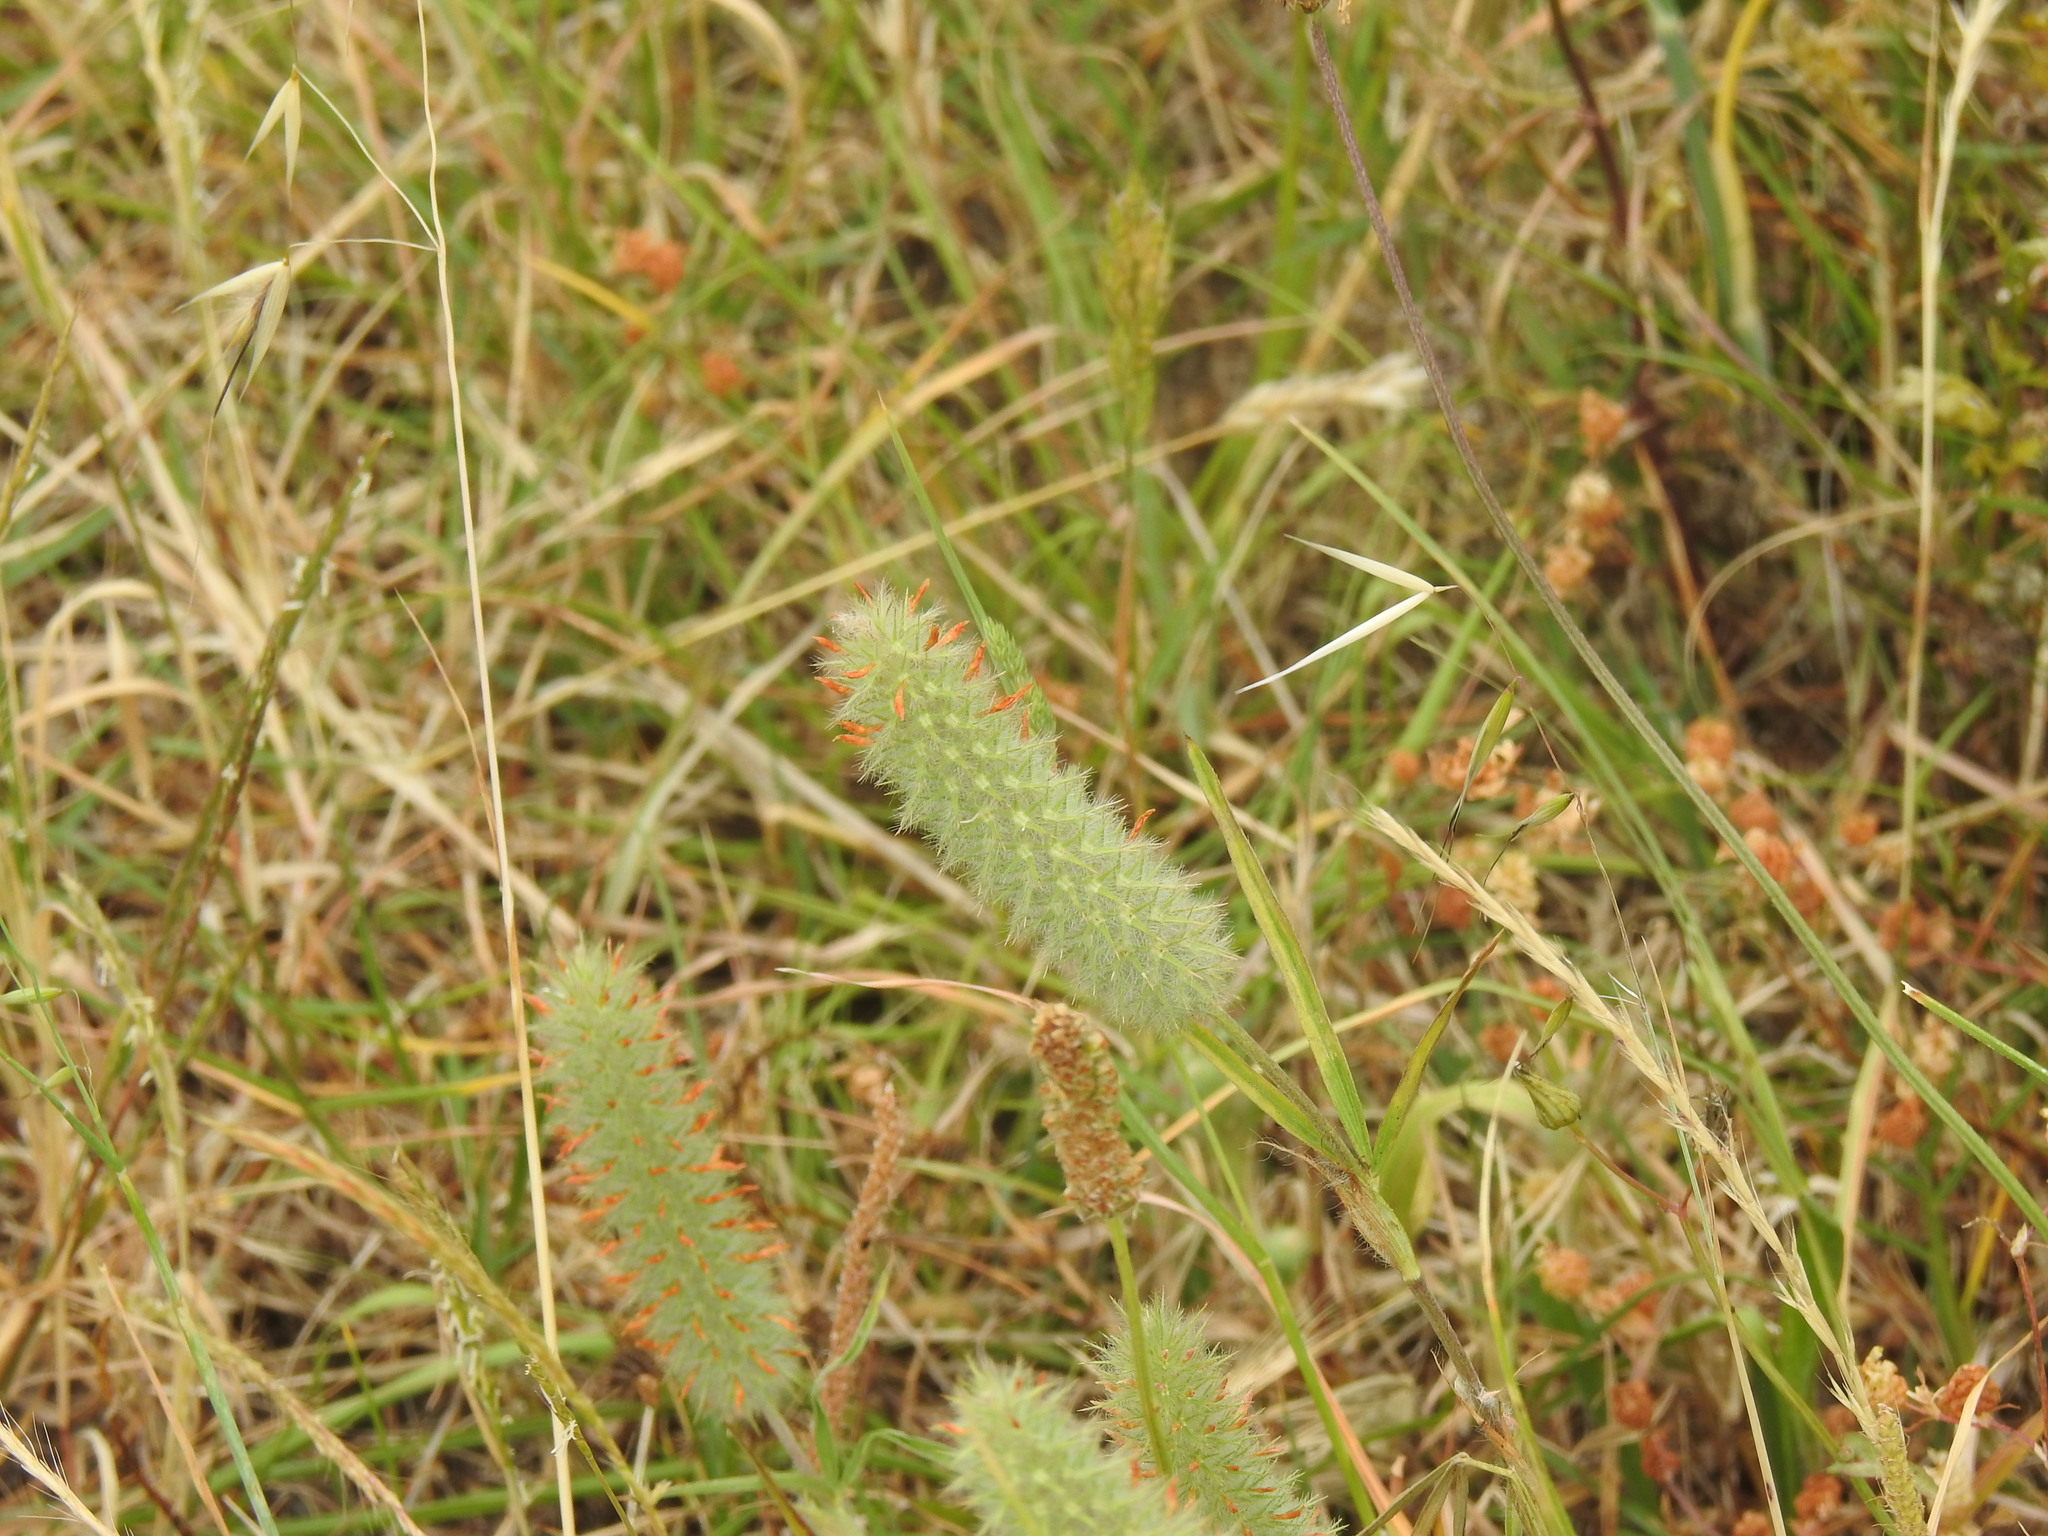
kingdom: Plantae
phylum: Tracheophyta
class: Magnoliopsida
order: Fabales
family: Fabaceae
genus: Trifolium
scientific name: Trifolium angustifolium
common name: Narrow clover
